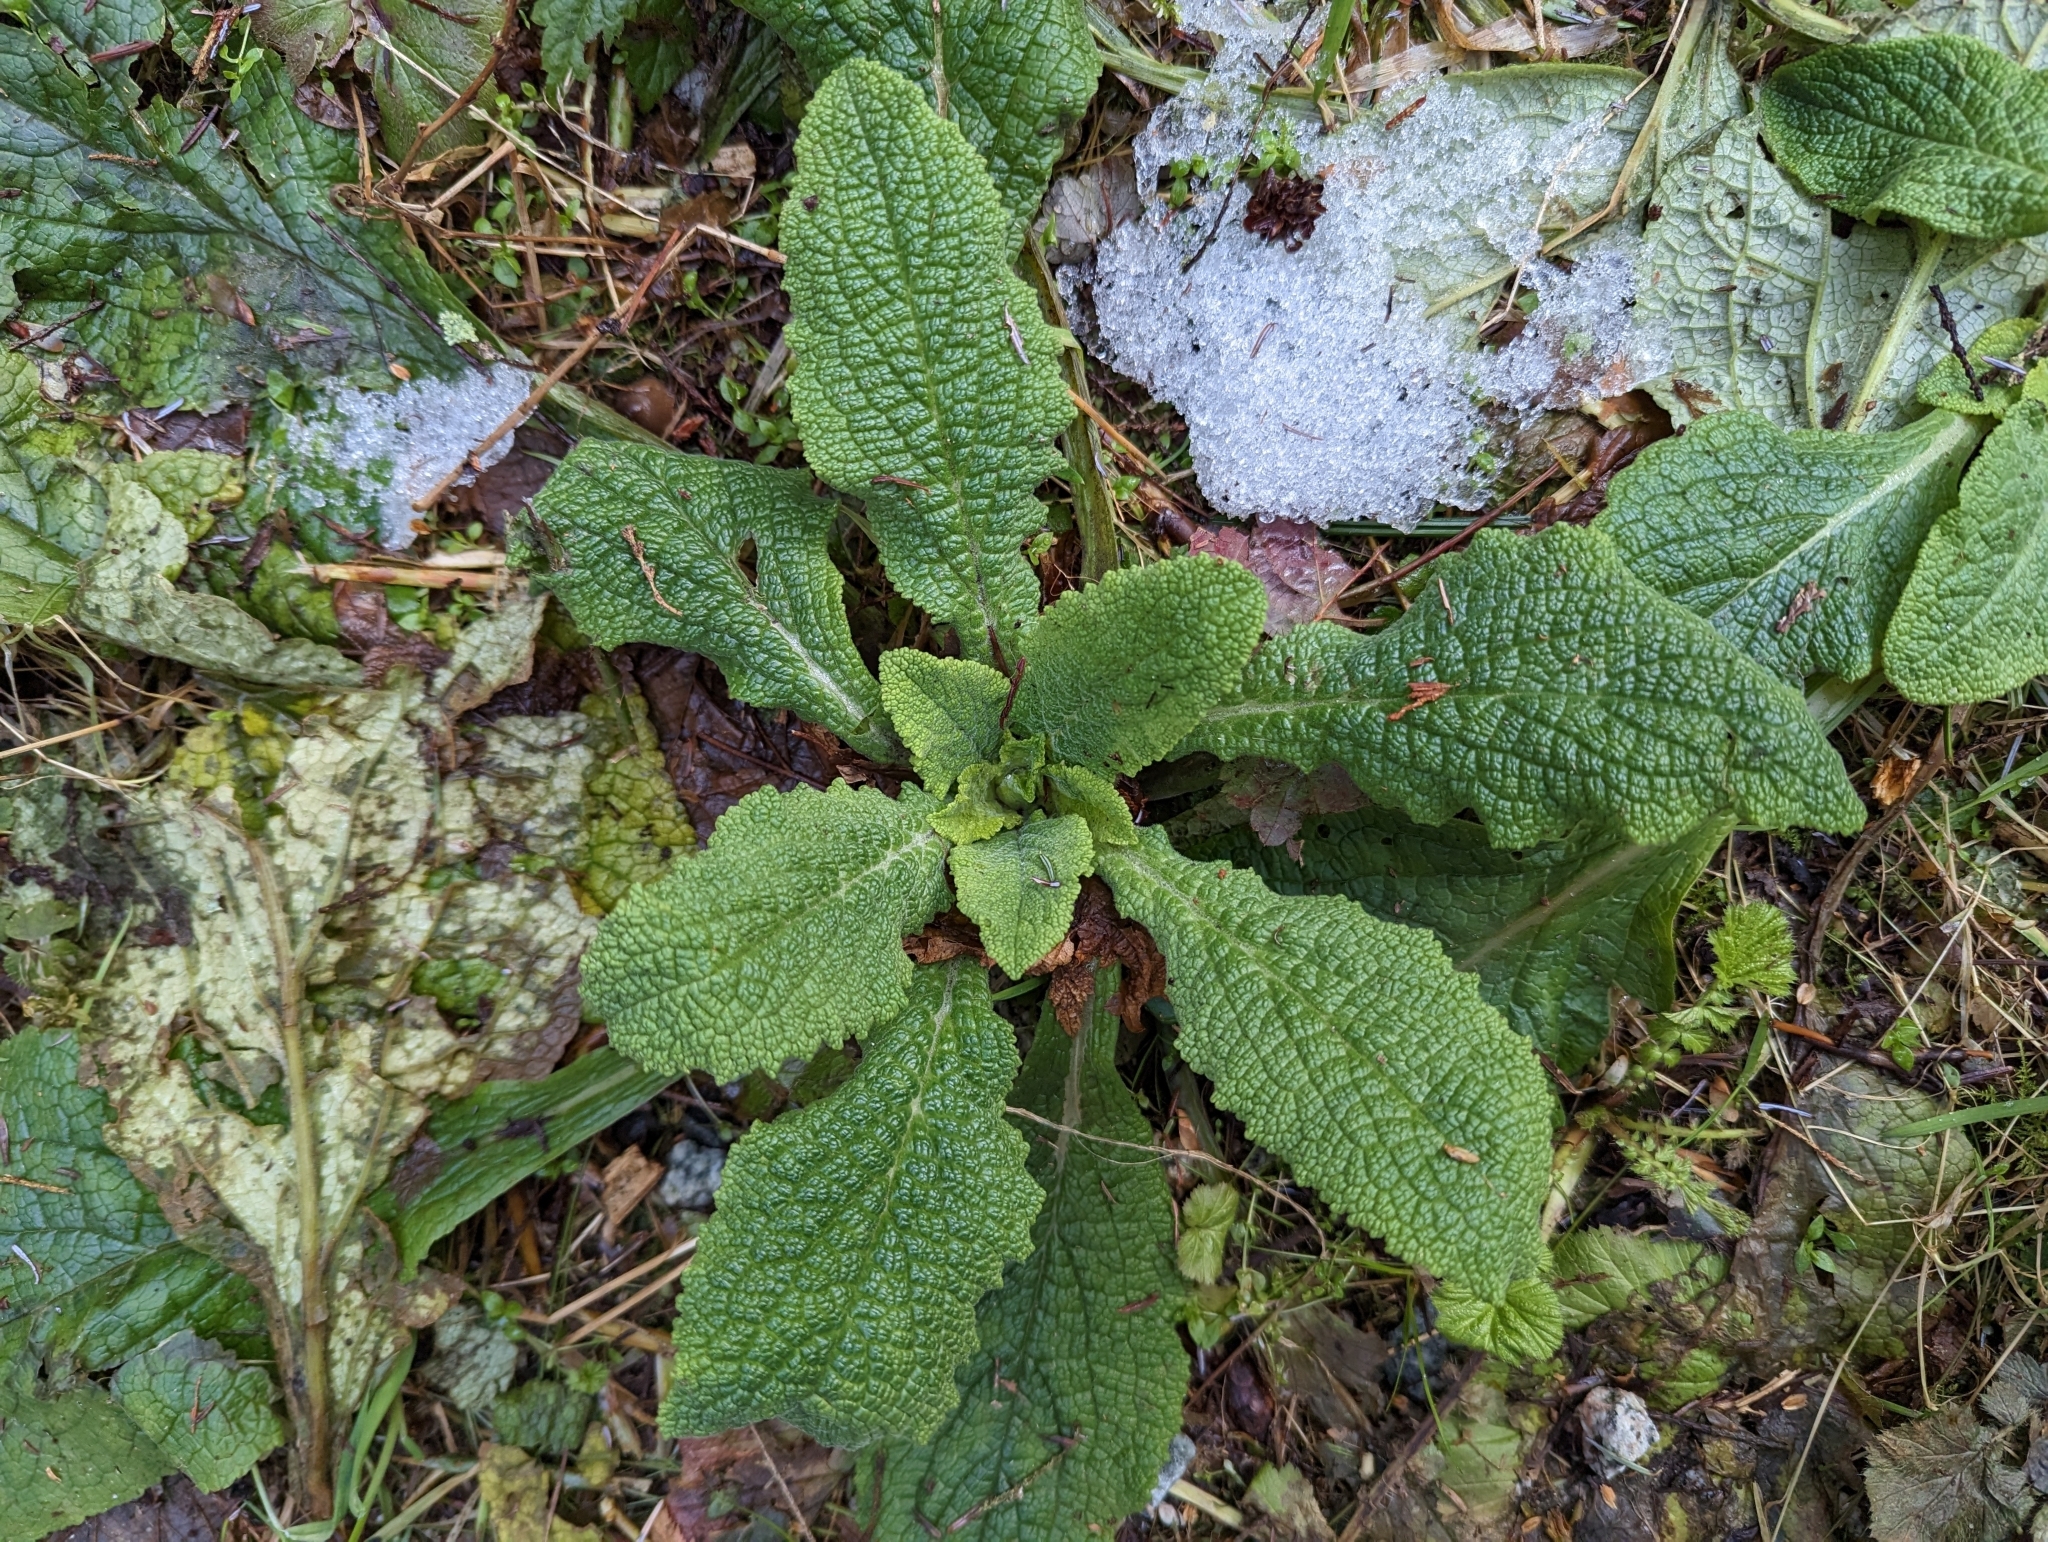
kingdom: Plantae
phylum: Tracheophyta
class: Magnoliopsida
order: Lamiales
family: Plantaginaceae
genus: Digitalis
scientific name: Digitalis purpurea
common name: Foxglove
